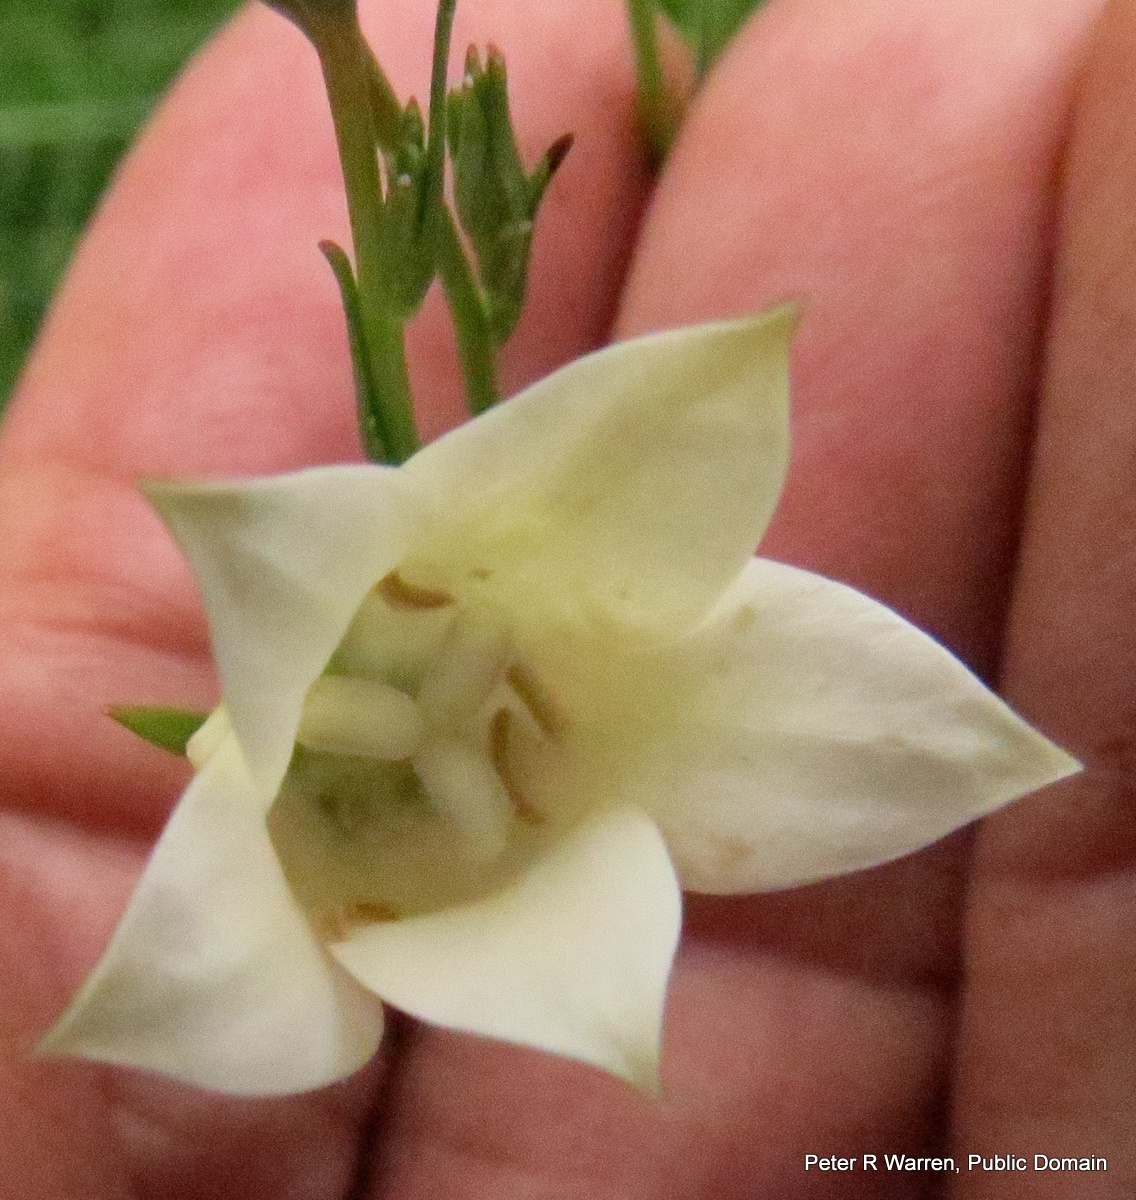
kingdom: Plantae
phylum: Tracheophyta
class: Magnoliopsida
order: Asterales
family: Campanulaceae
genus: Wahlenbergia
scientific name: Wahlenbergia grandiflora
